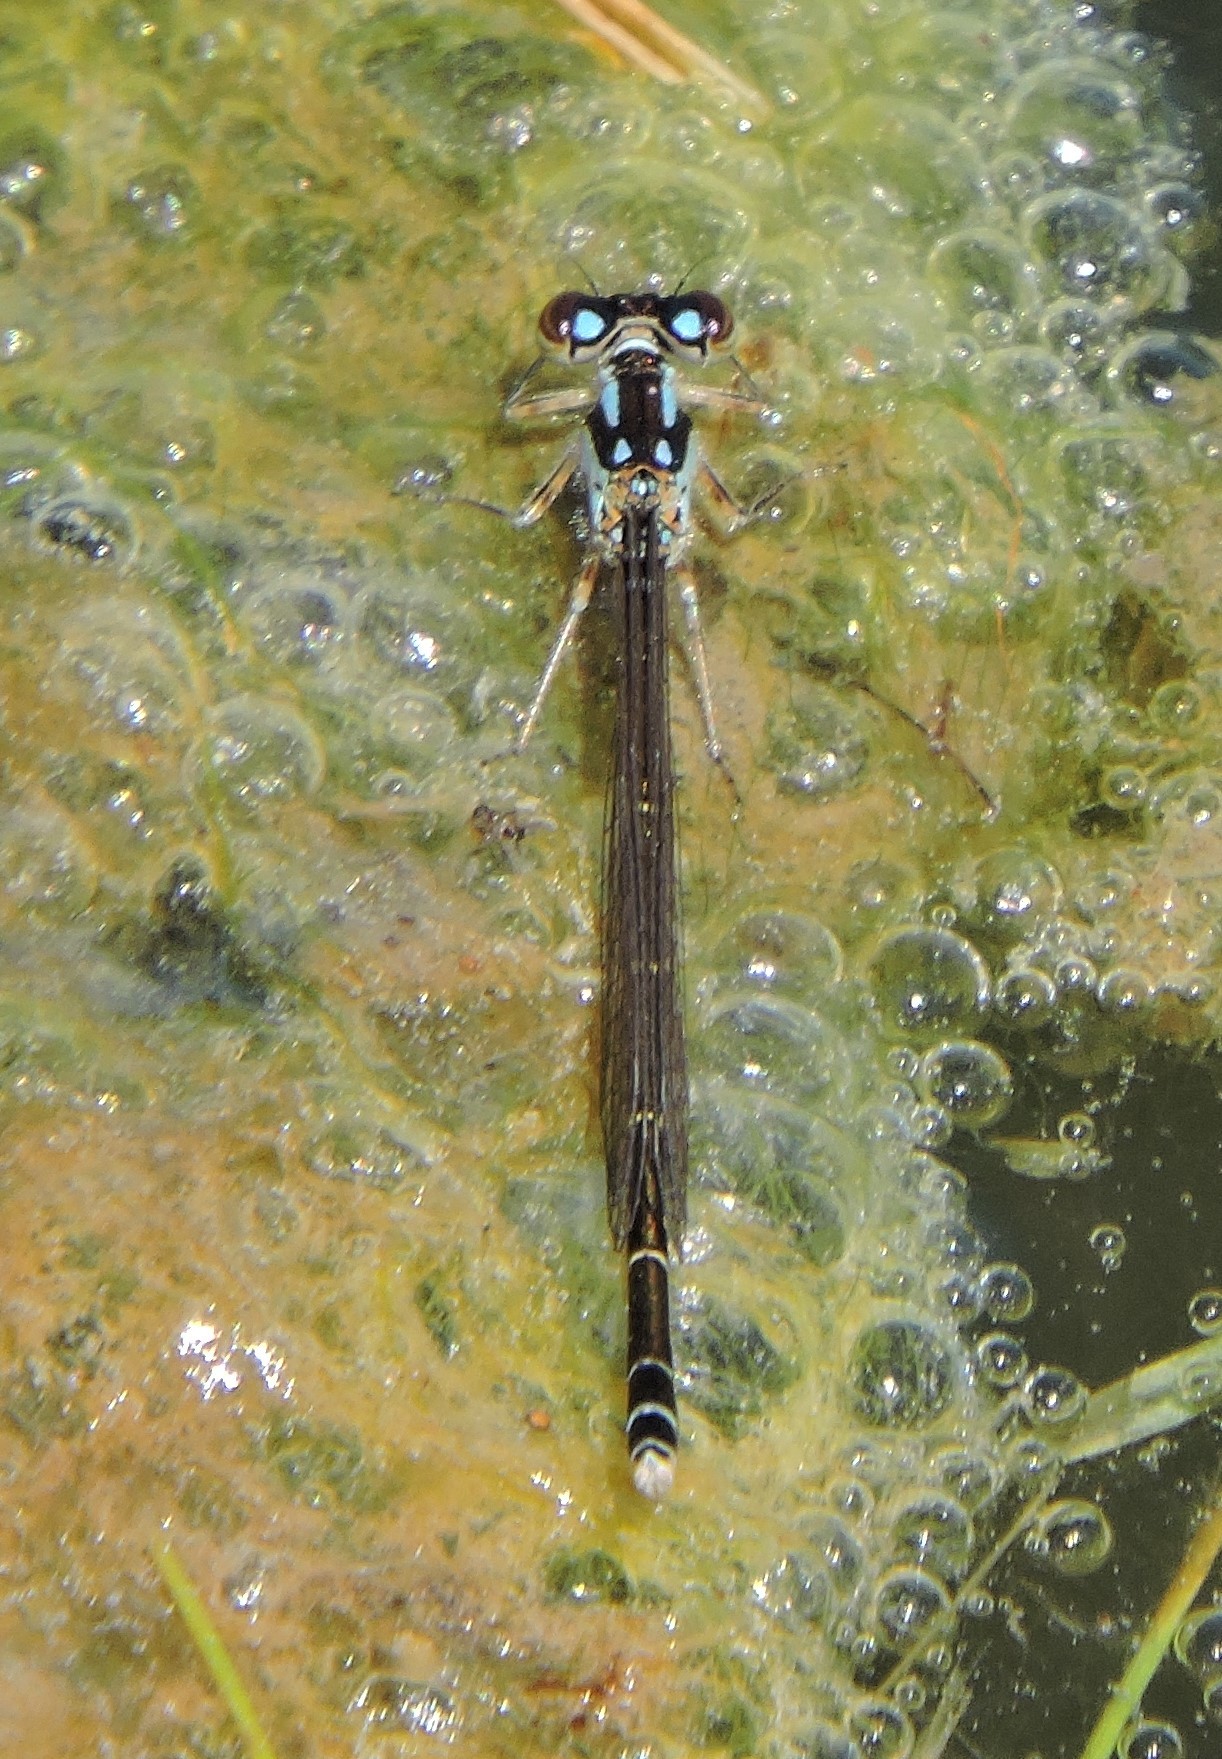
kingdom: Animalia
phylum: Arthropoda
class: Insecta
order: Odonata
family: Coenagrionidae
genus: Ischnura
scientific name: Ischnura posita
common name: Fragile forktail
